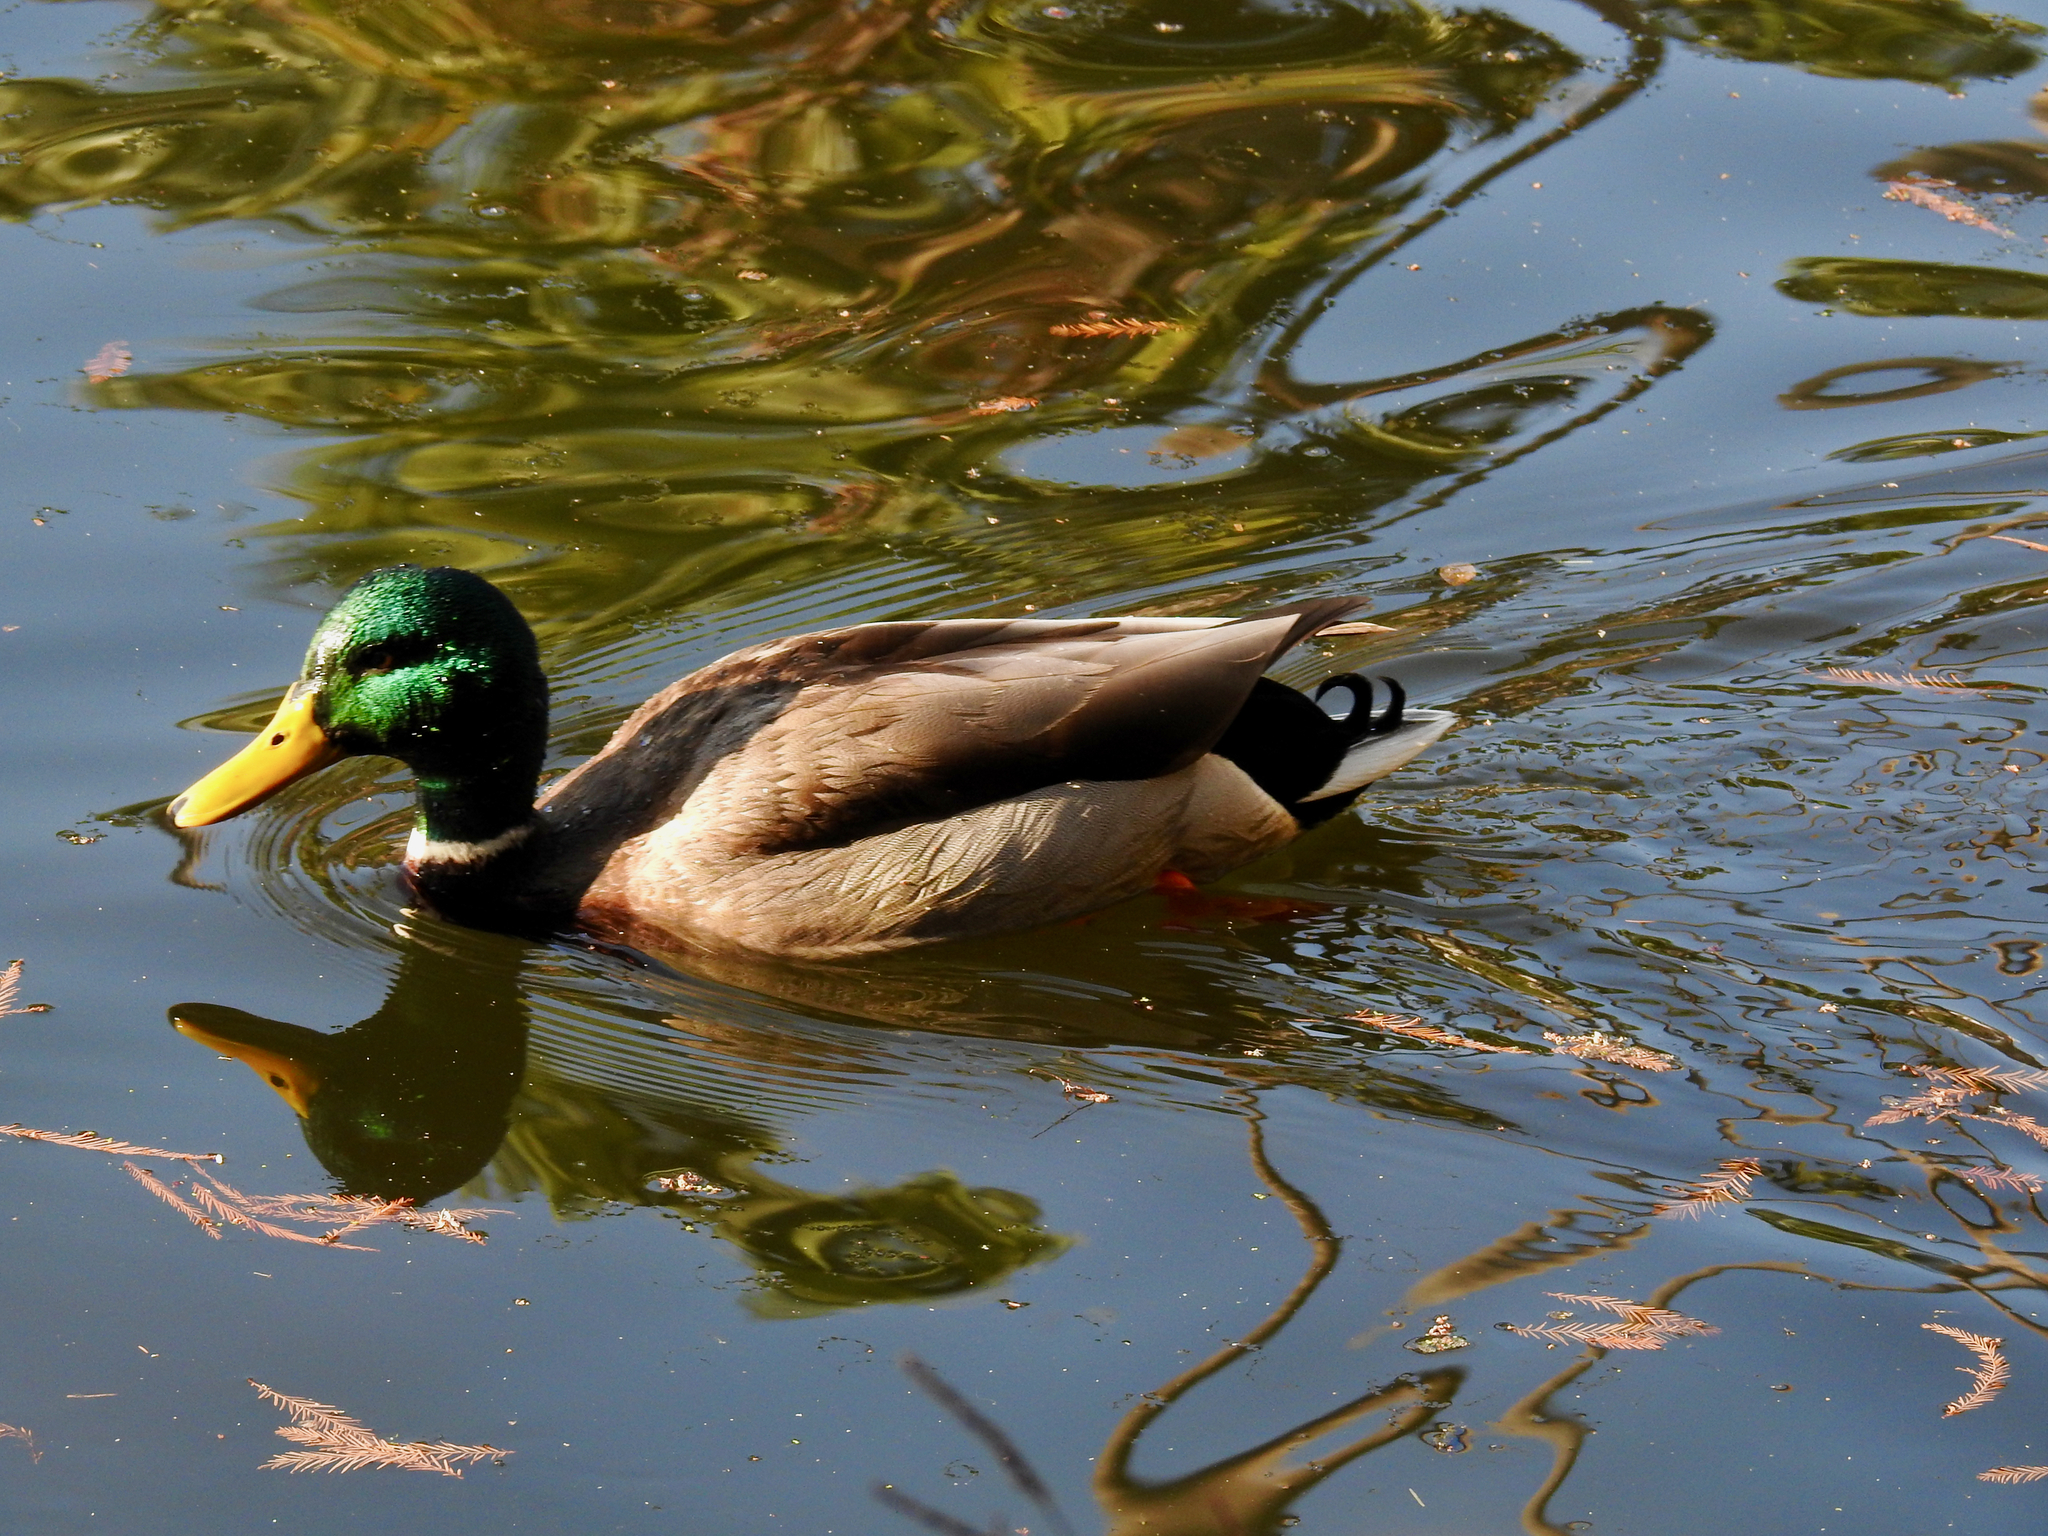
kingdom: Animalia
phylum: Chordata
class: Aves
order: Anseriformes
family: Anatidae
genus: Anas
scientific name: Anas platyrhynchos
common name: Mallard
